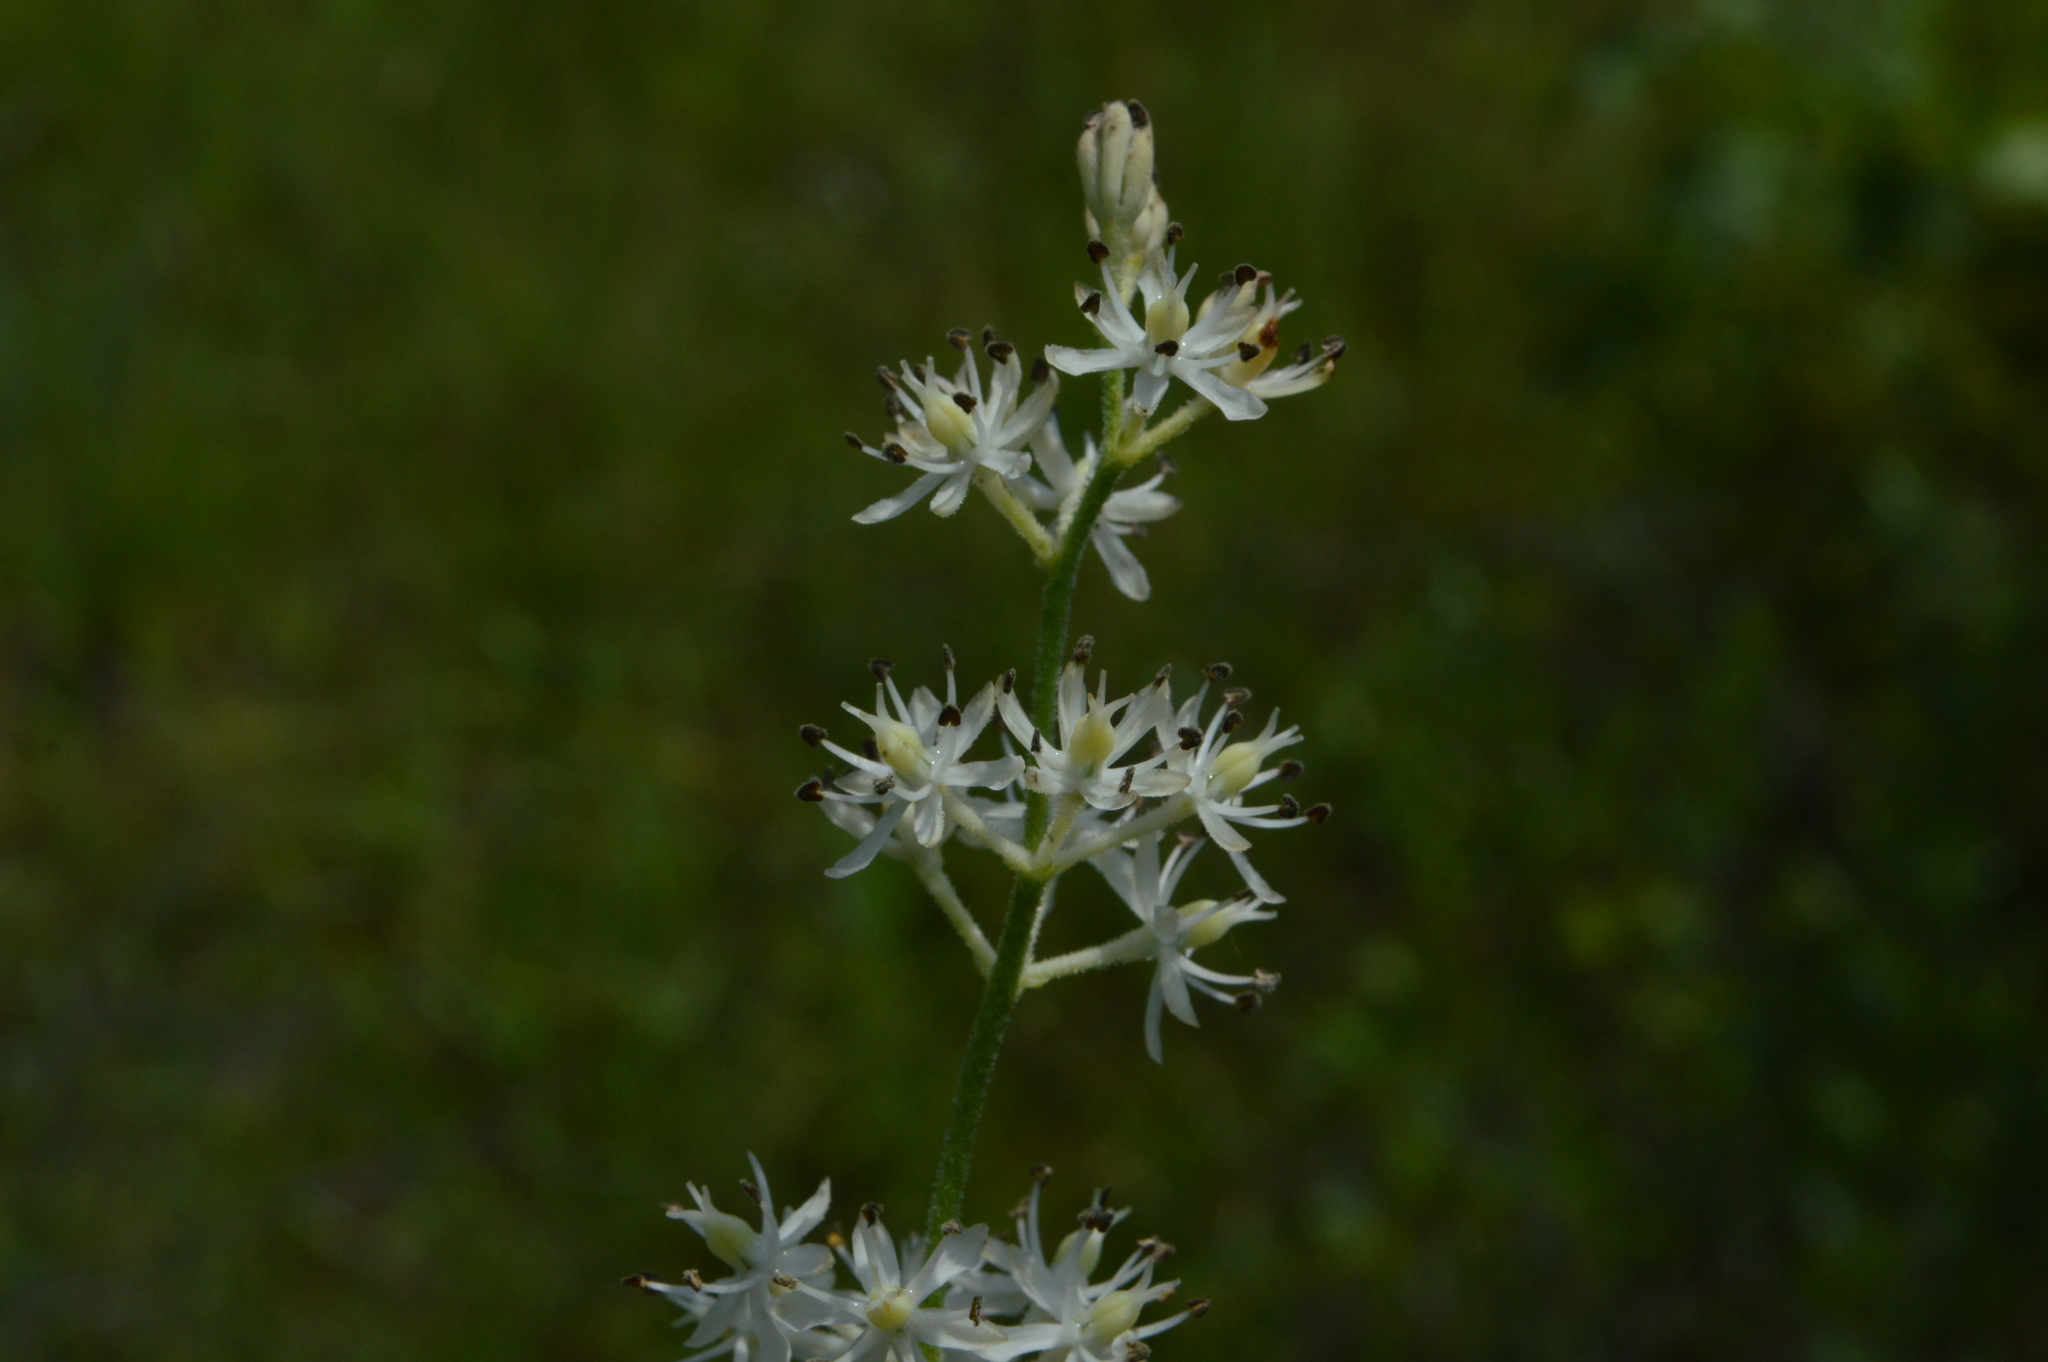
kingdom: Plantae
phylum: Tracheophyta
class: Liliopsida
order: Alismatales
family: Tofieldiaceae
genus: Triantha
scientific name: Triantha racemosa
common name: Coastal false asphodel
